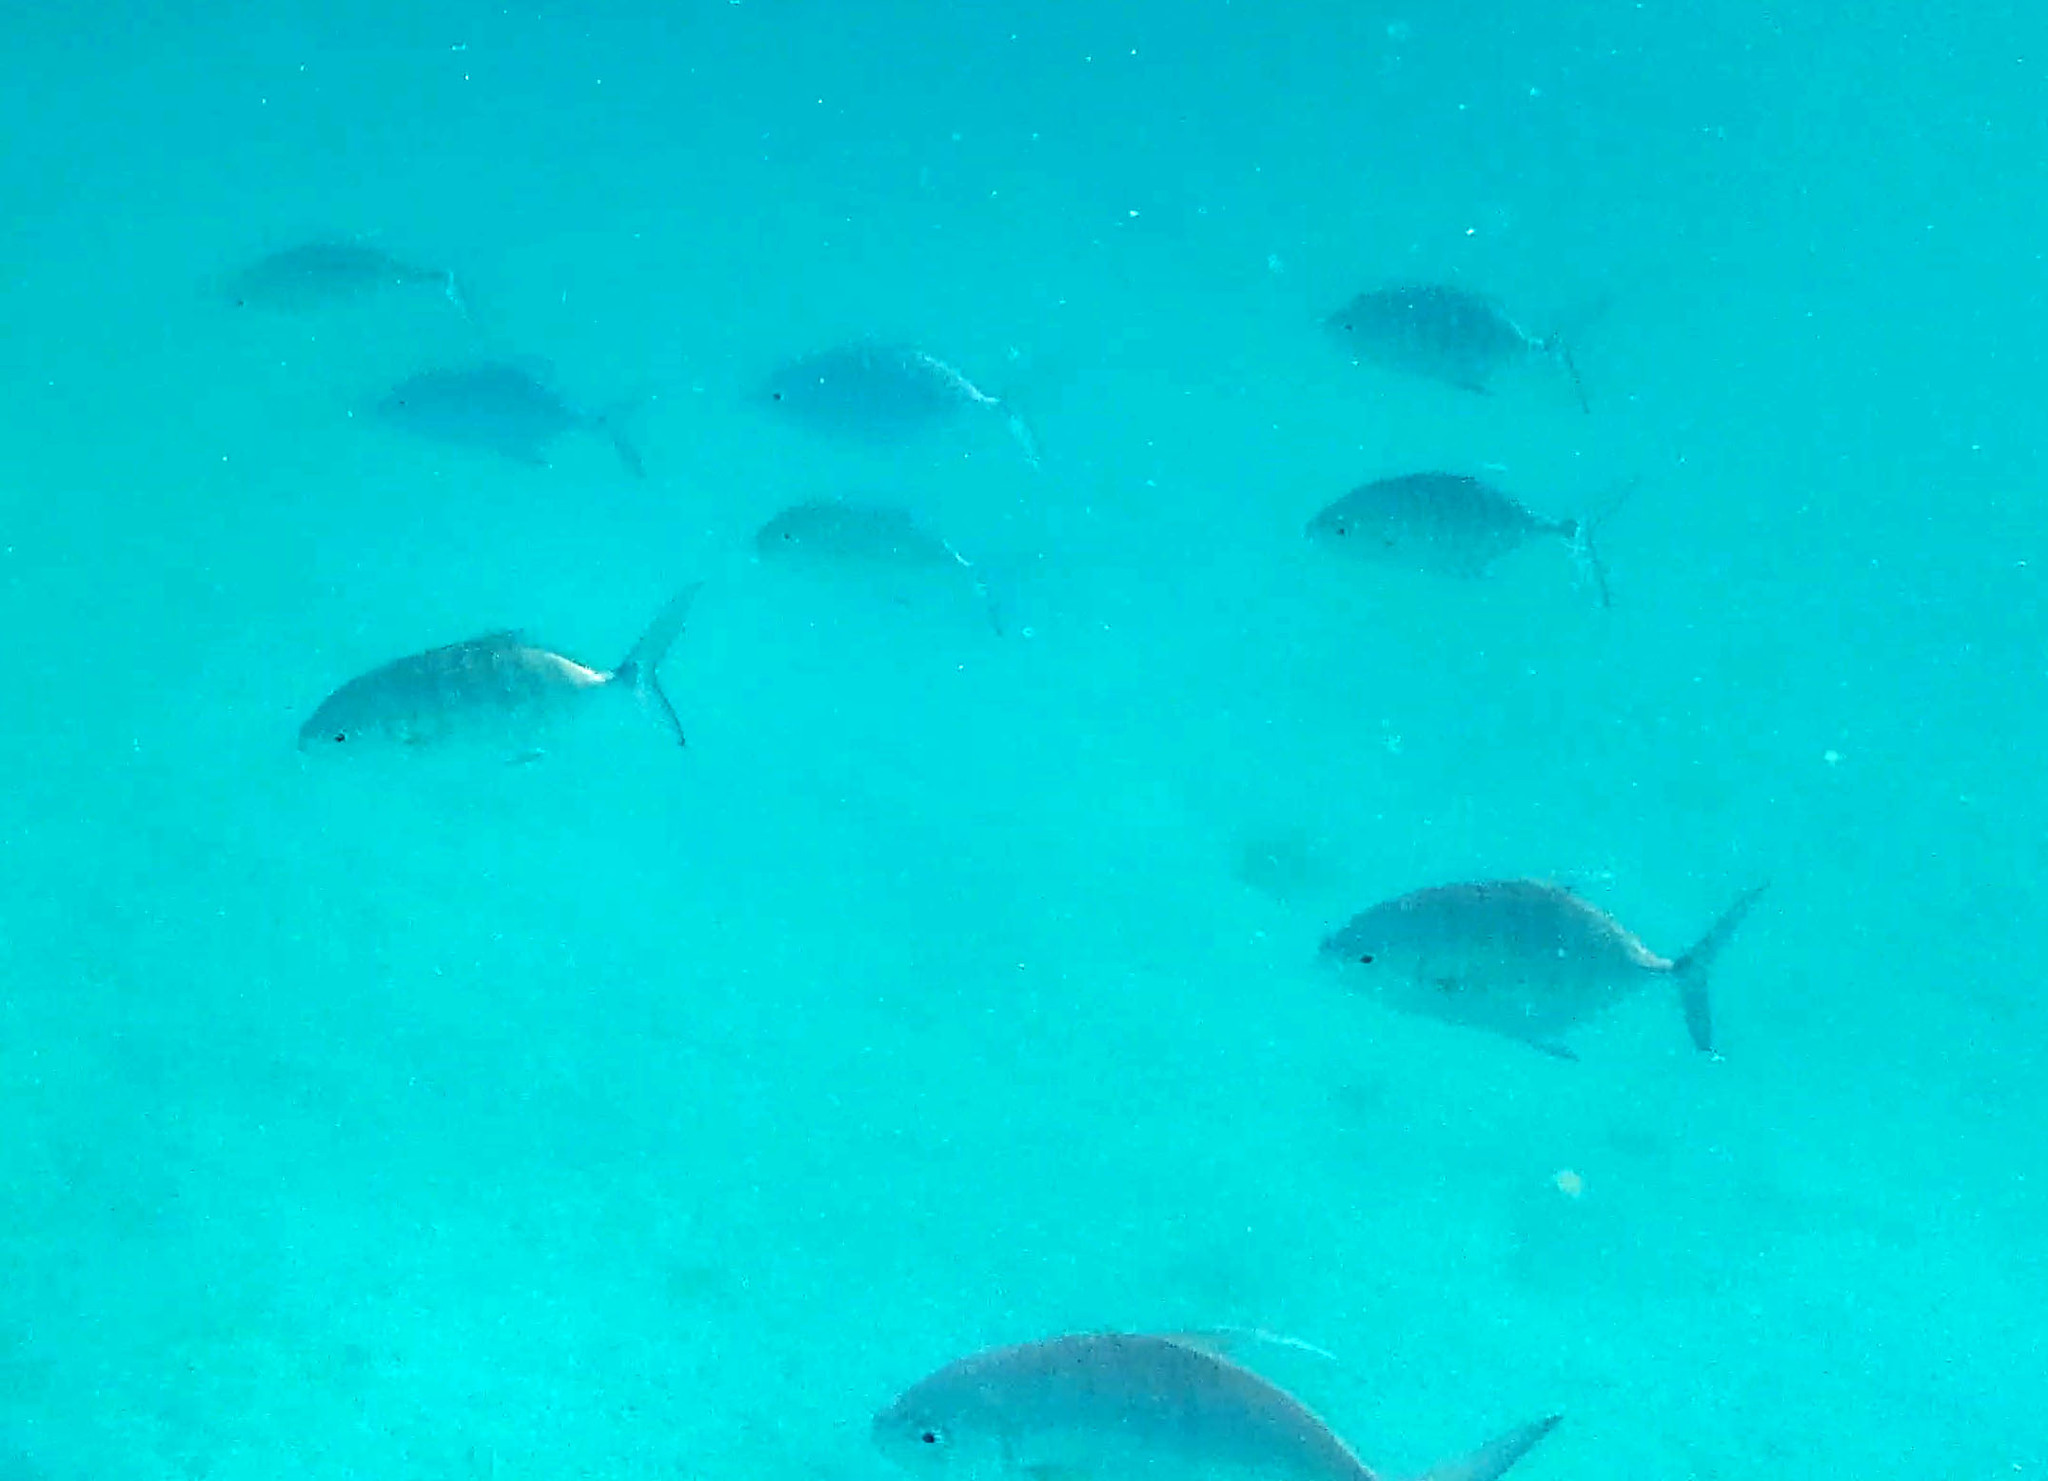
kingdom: Animalia
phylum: Chordata
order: Perciformes
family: Carangidae
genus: Carangoides
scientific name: Carangoides Ferdauia ferdau
